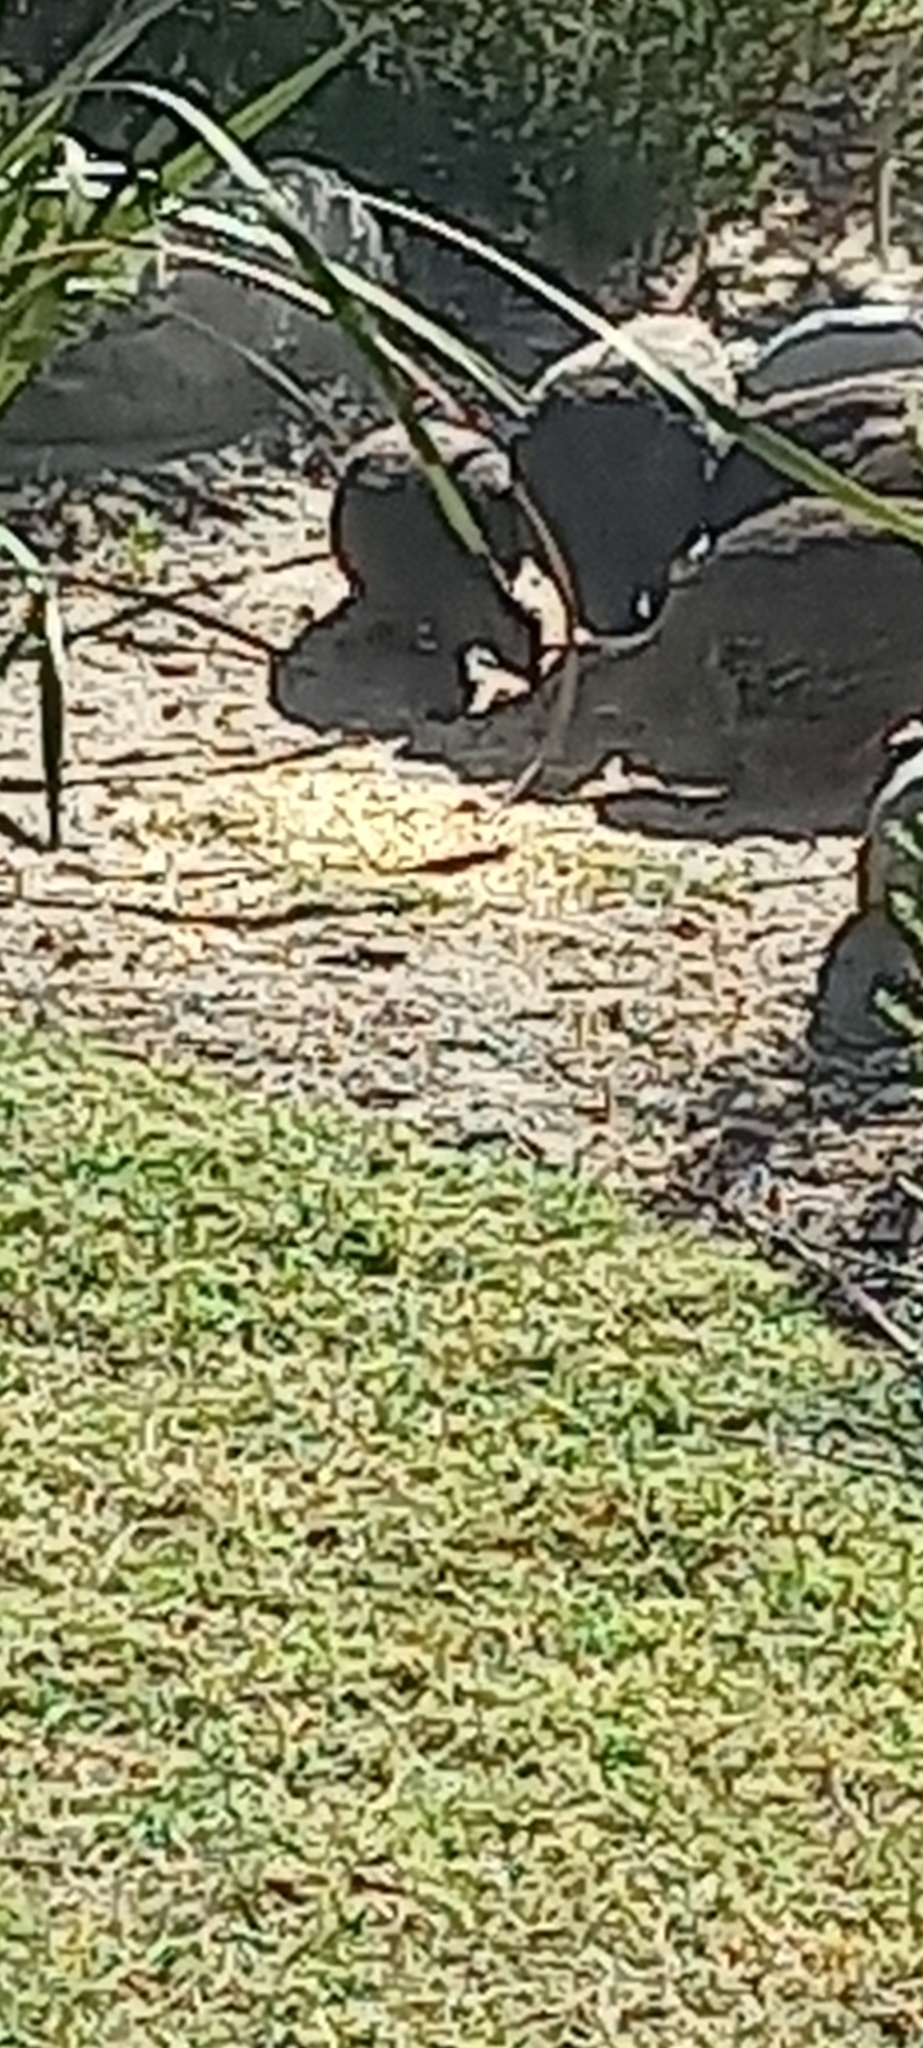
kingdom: Animalia
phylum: Chordata
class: Aves
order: Galliformes
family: Phasianidae
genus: Pternistis
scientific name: Pternistis capensis
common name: Cape spurfowl
